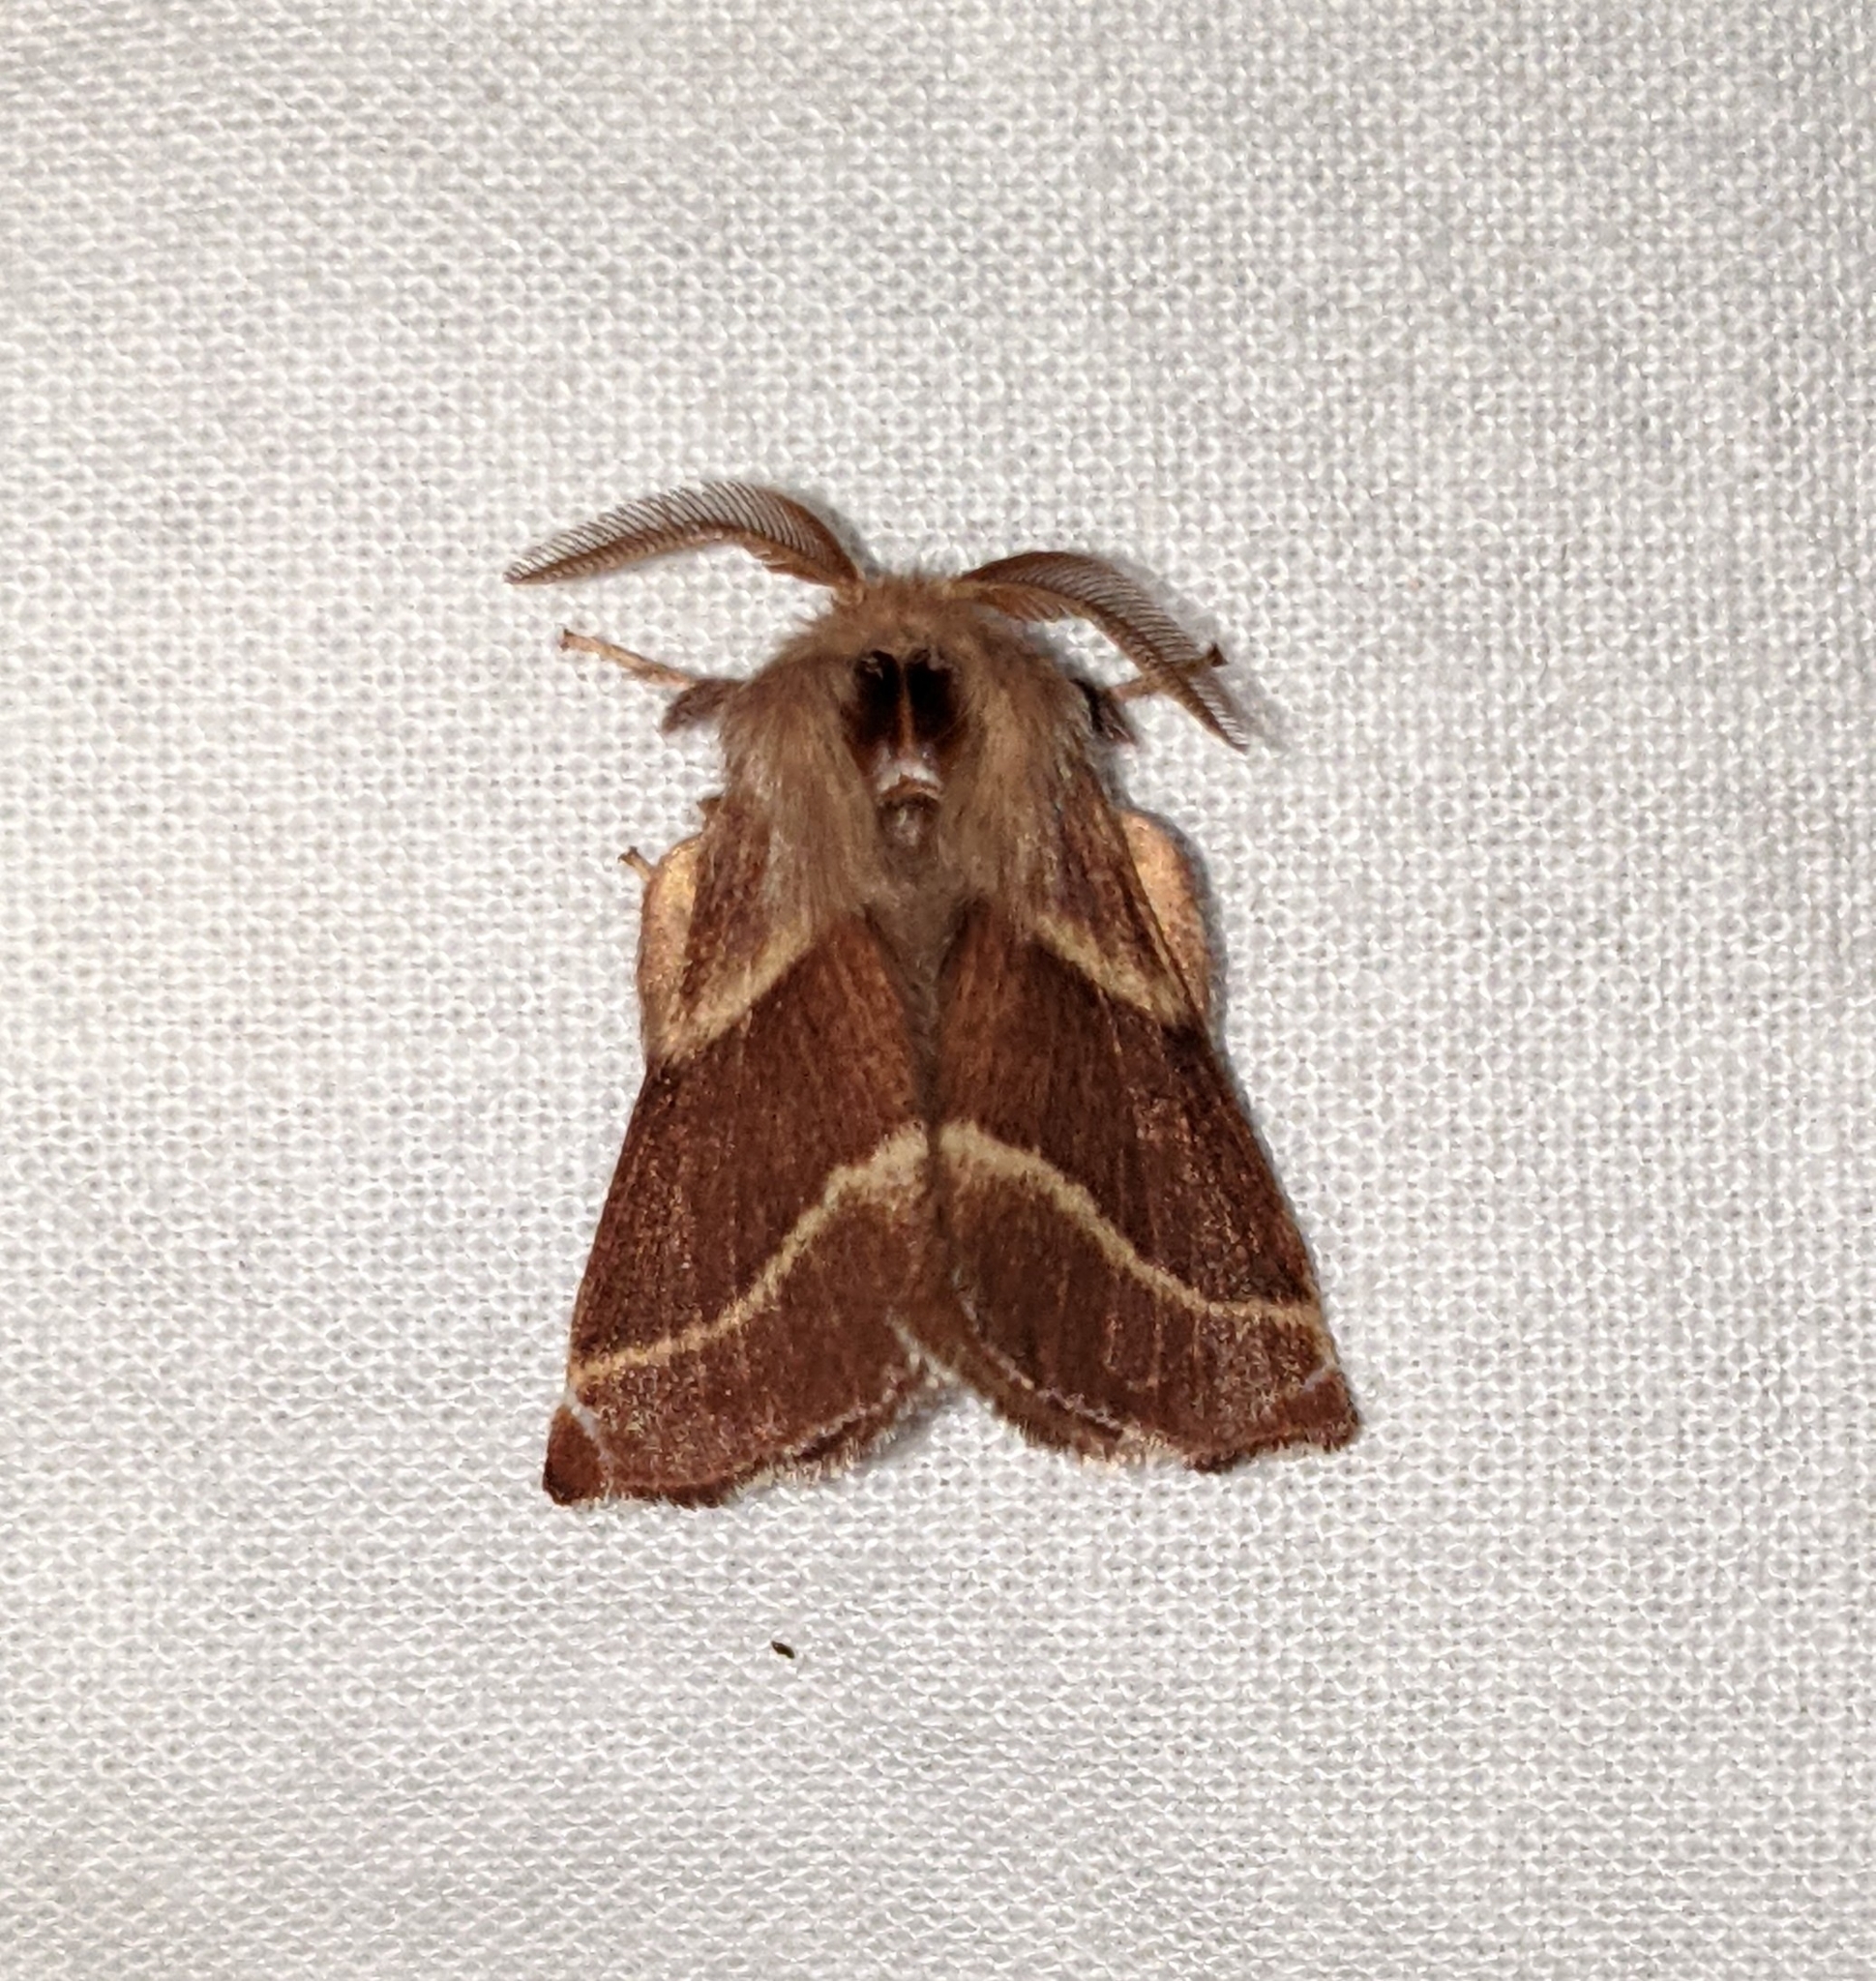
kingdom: Animalia
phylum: Arthropoda
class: Insecta
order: Lepidoptera
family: Lasiocampidae
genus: Malacosoma
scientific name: Malacosoma californica
